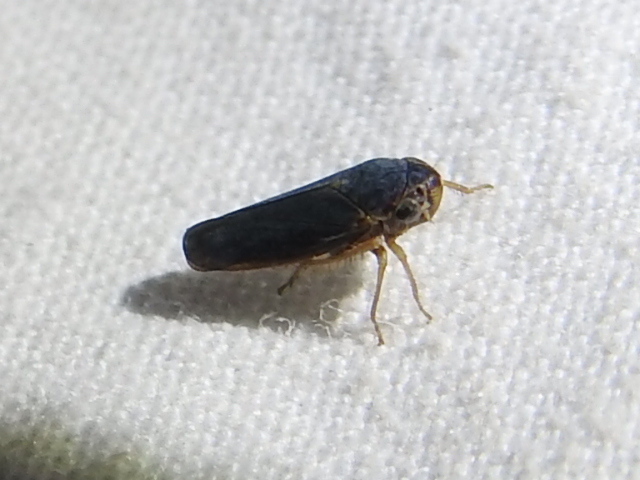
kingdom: Animalia
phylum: Arthropoda
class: Insecta
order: Hemiptera
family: Cicadellidae
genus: Ciminius
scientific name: Ciminius hartii
